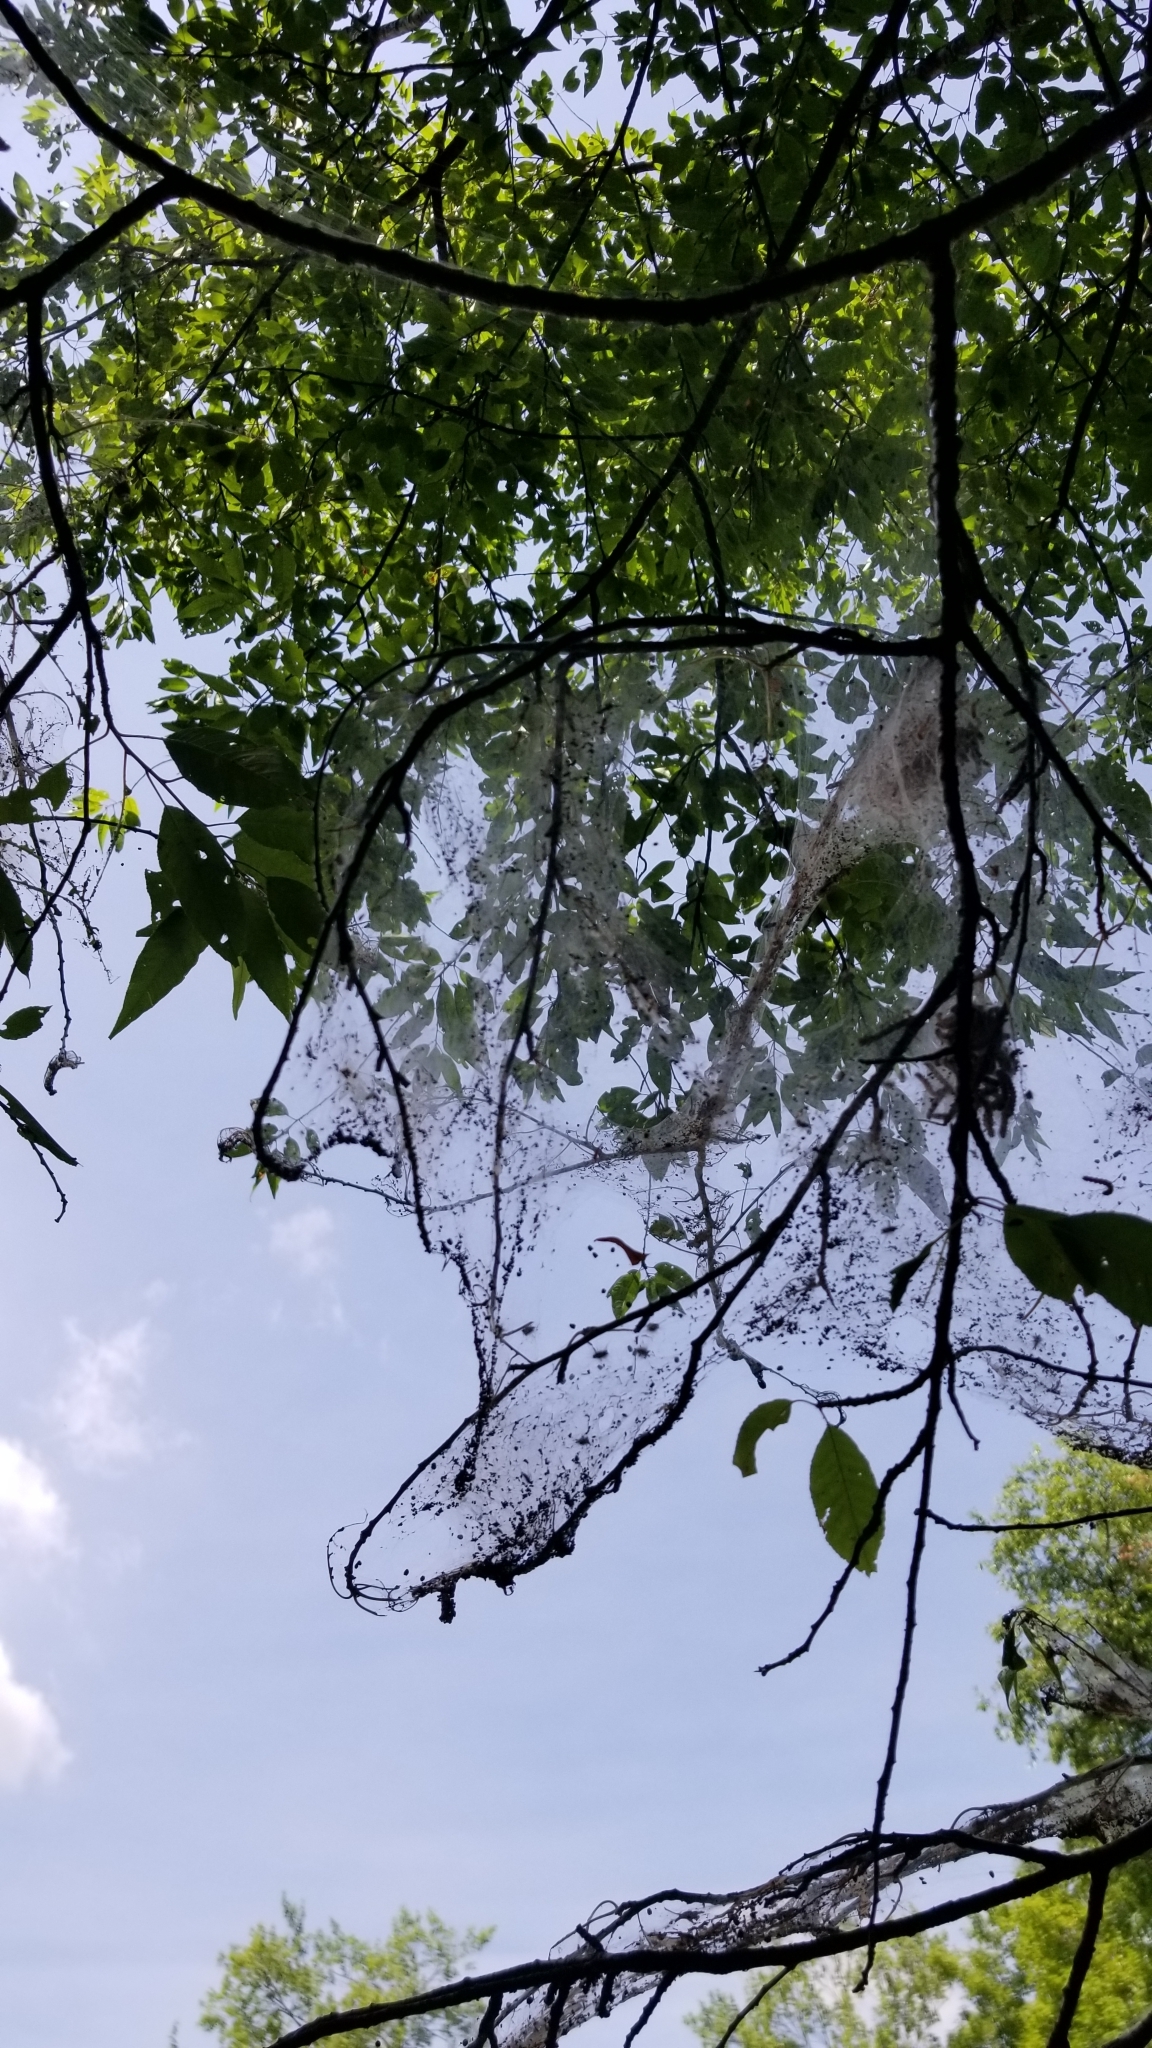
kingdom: Animalia
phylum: Arthropoda
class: Insecta
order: Lepidoptera
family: Erebidae
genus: Hyphantria
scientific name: Hyphantria cunea
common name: American white moth
